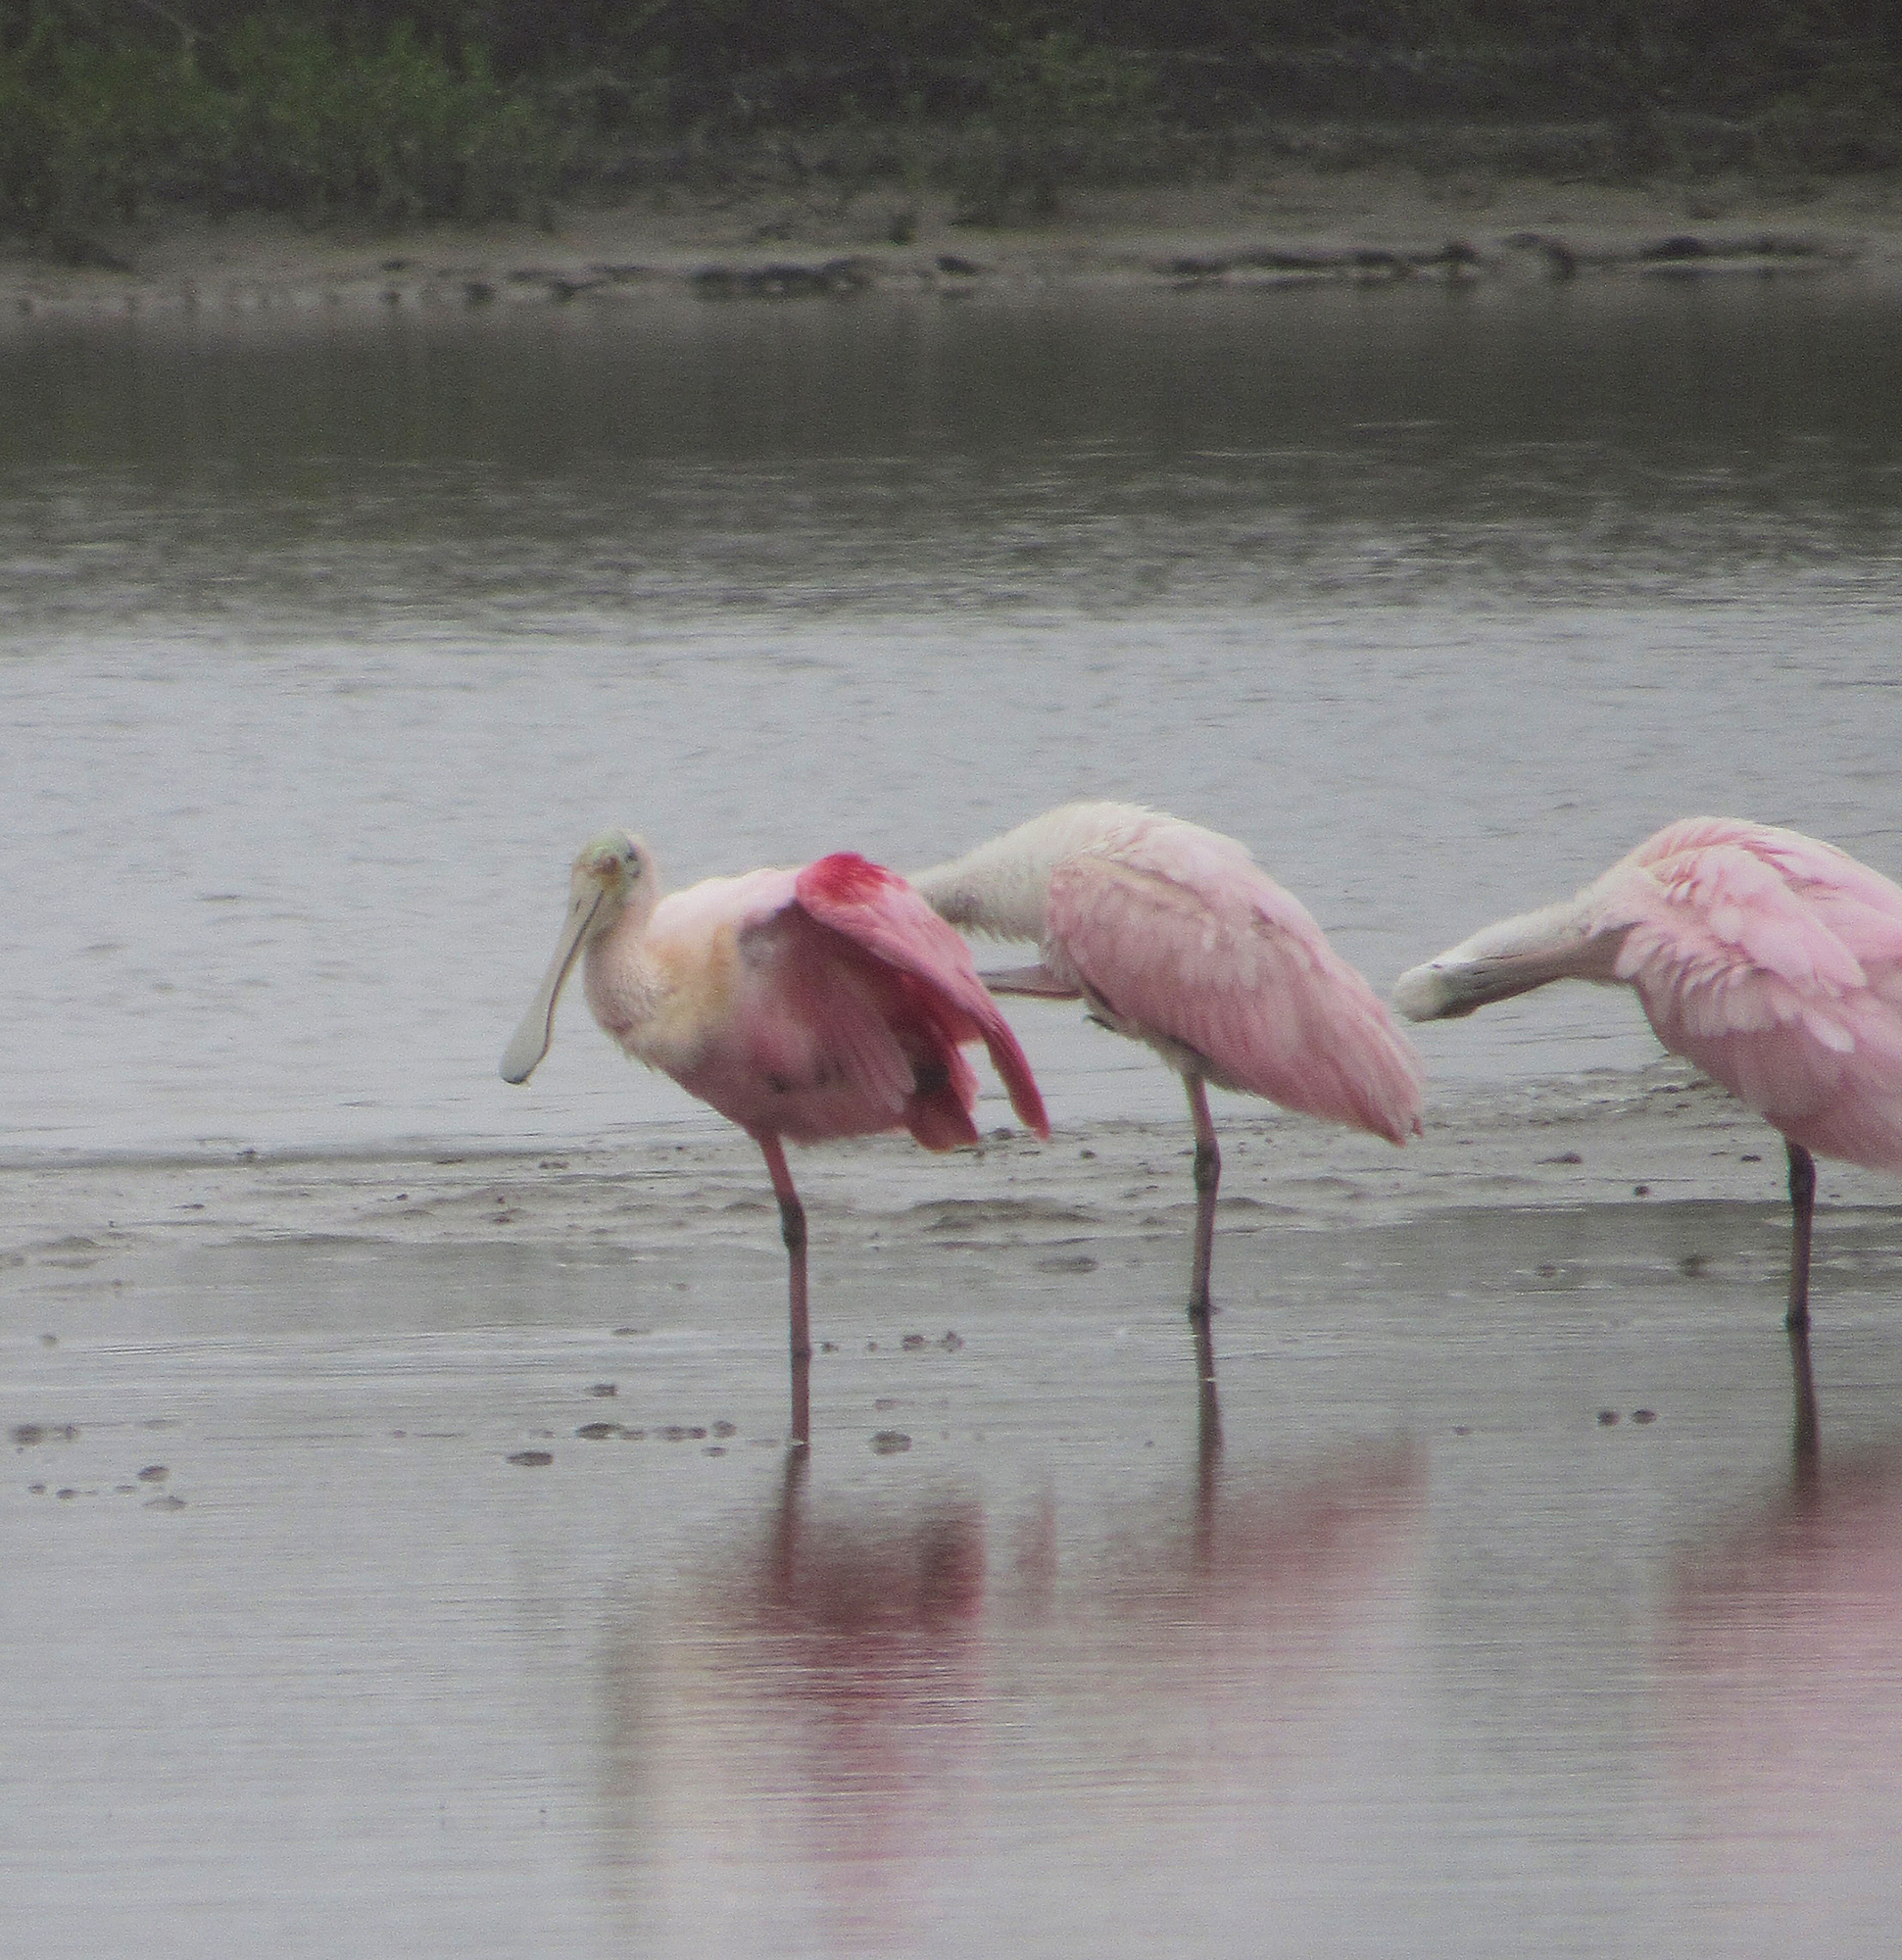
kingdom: Animalia
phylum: Chordata
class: Aves
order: Pelecaniformes
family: Threskiornithidae
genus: Platalea
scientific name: Platalea ajaja
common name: Roseate spoonbill
